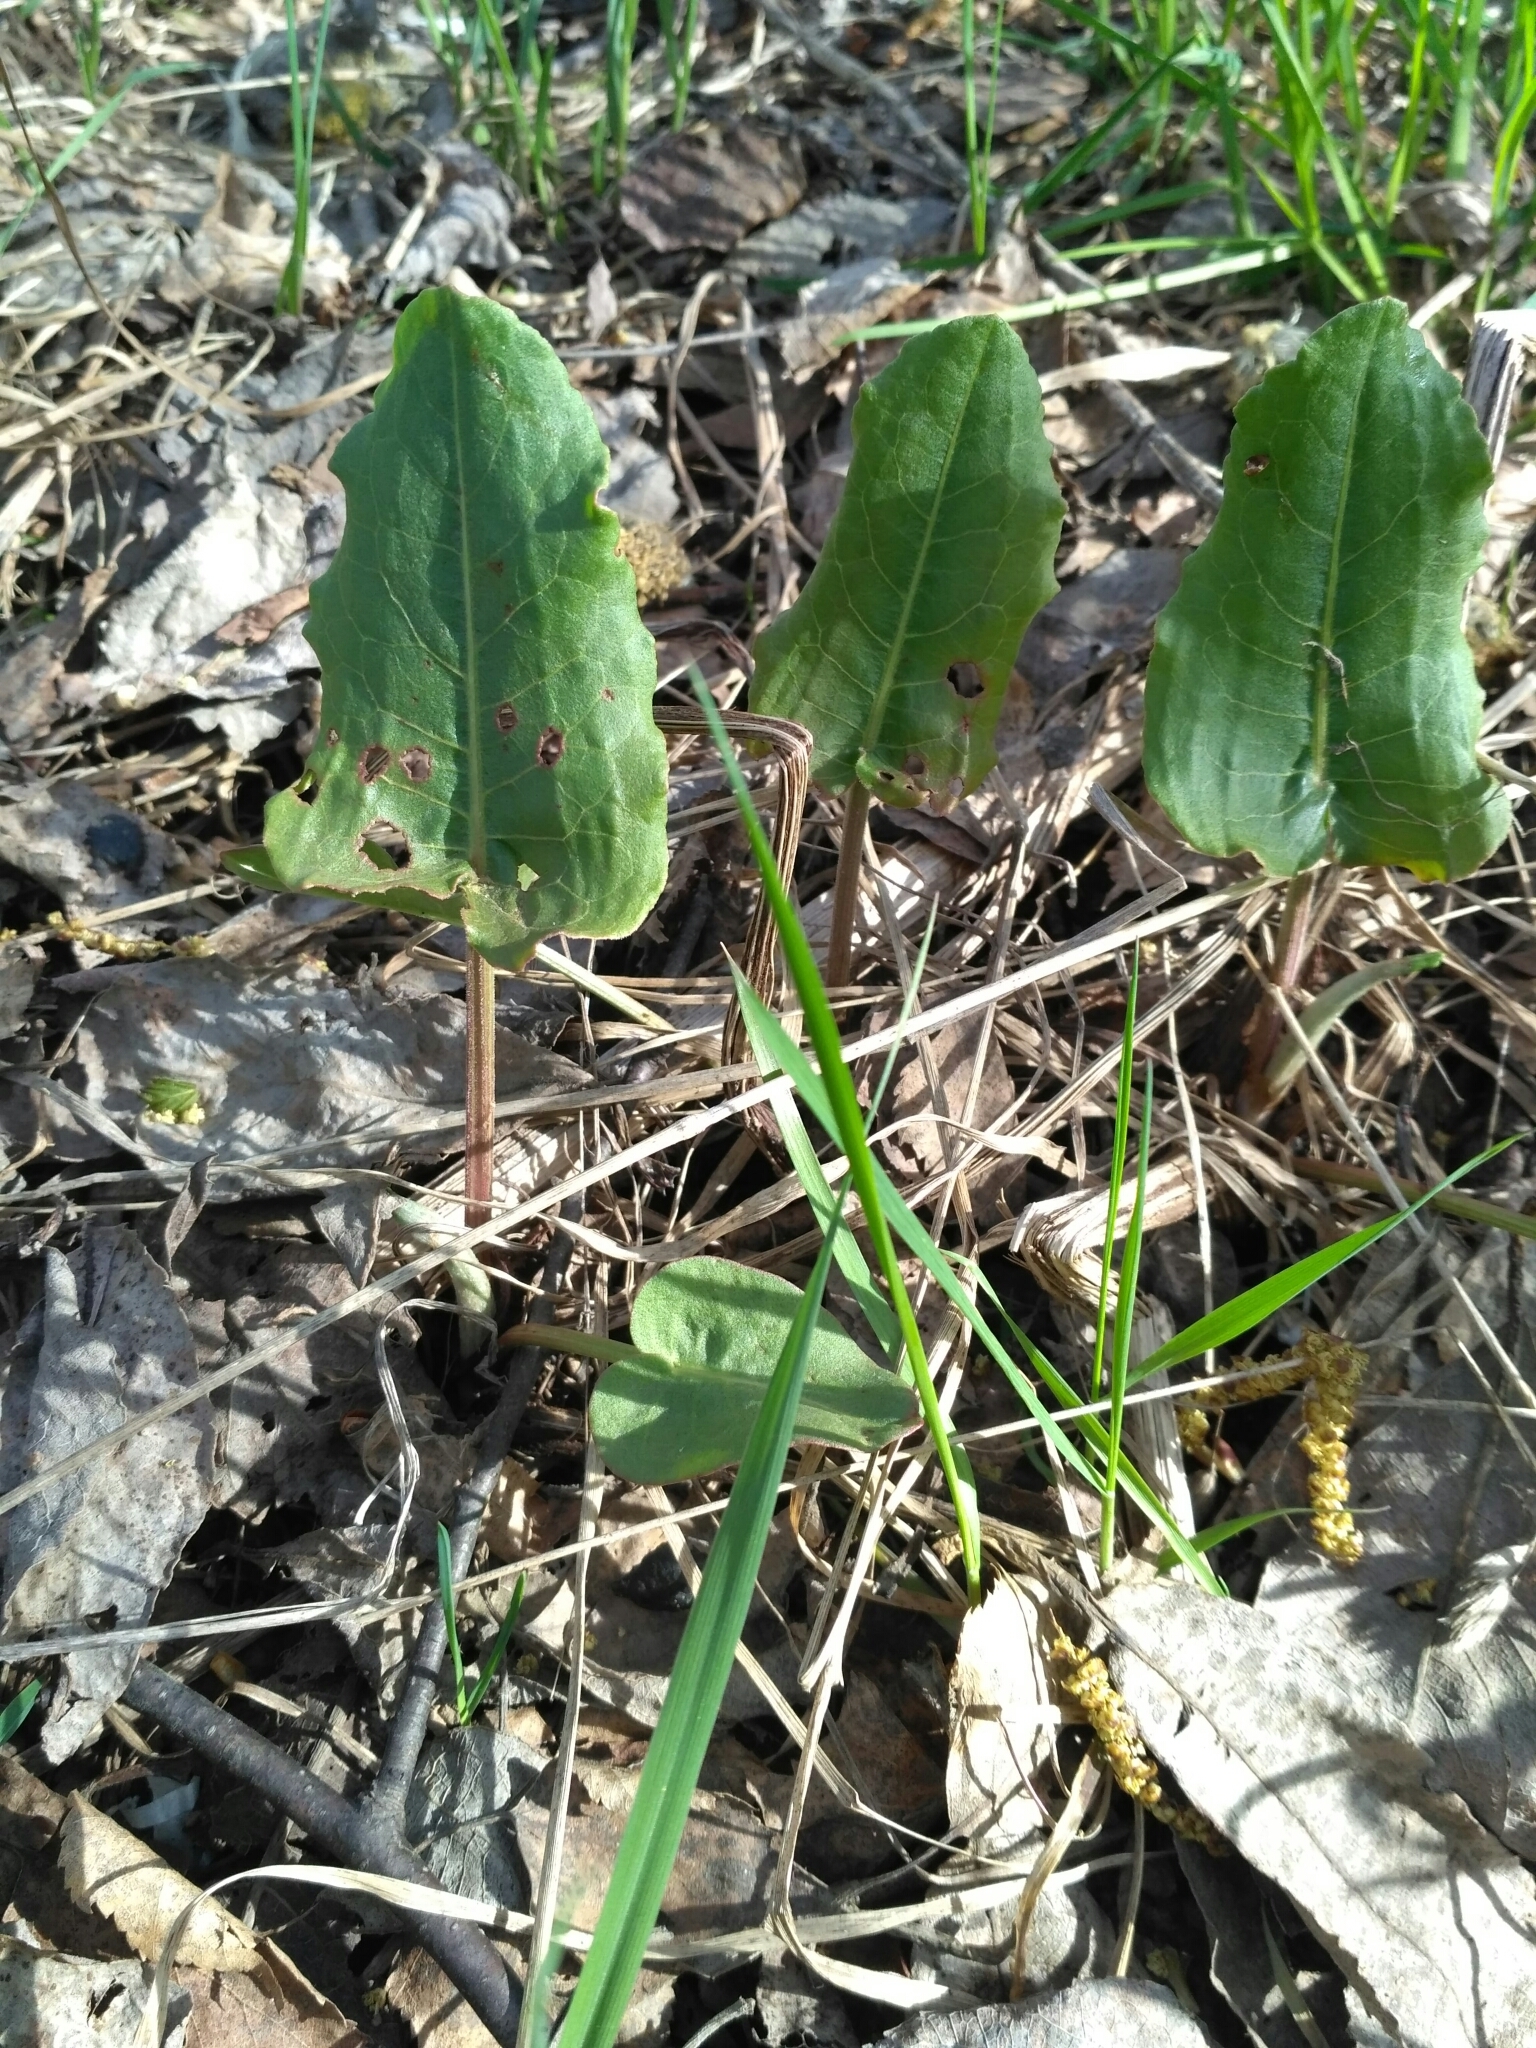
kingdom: Plantae
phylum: Tracheophyta
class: Magnoliopsida
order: Caryophyllales
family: Polygonaceae
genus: Rumex
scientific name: Rumex confertus
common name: Russian dock
